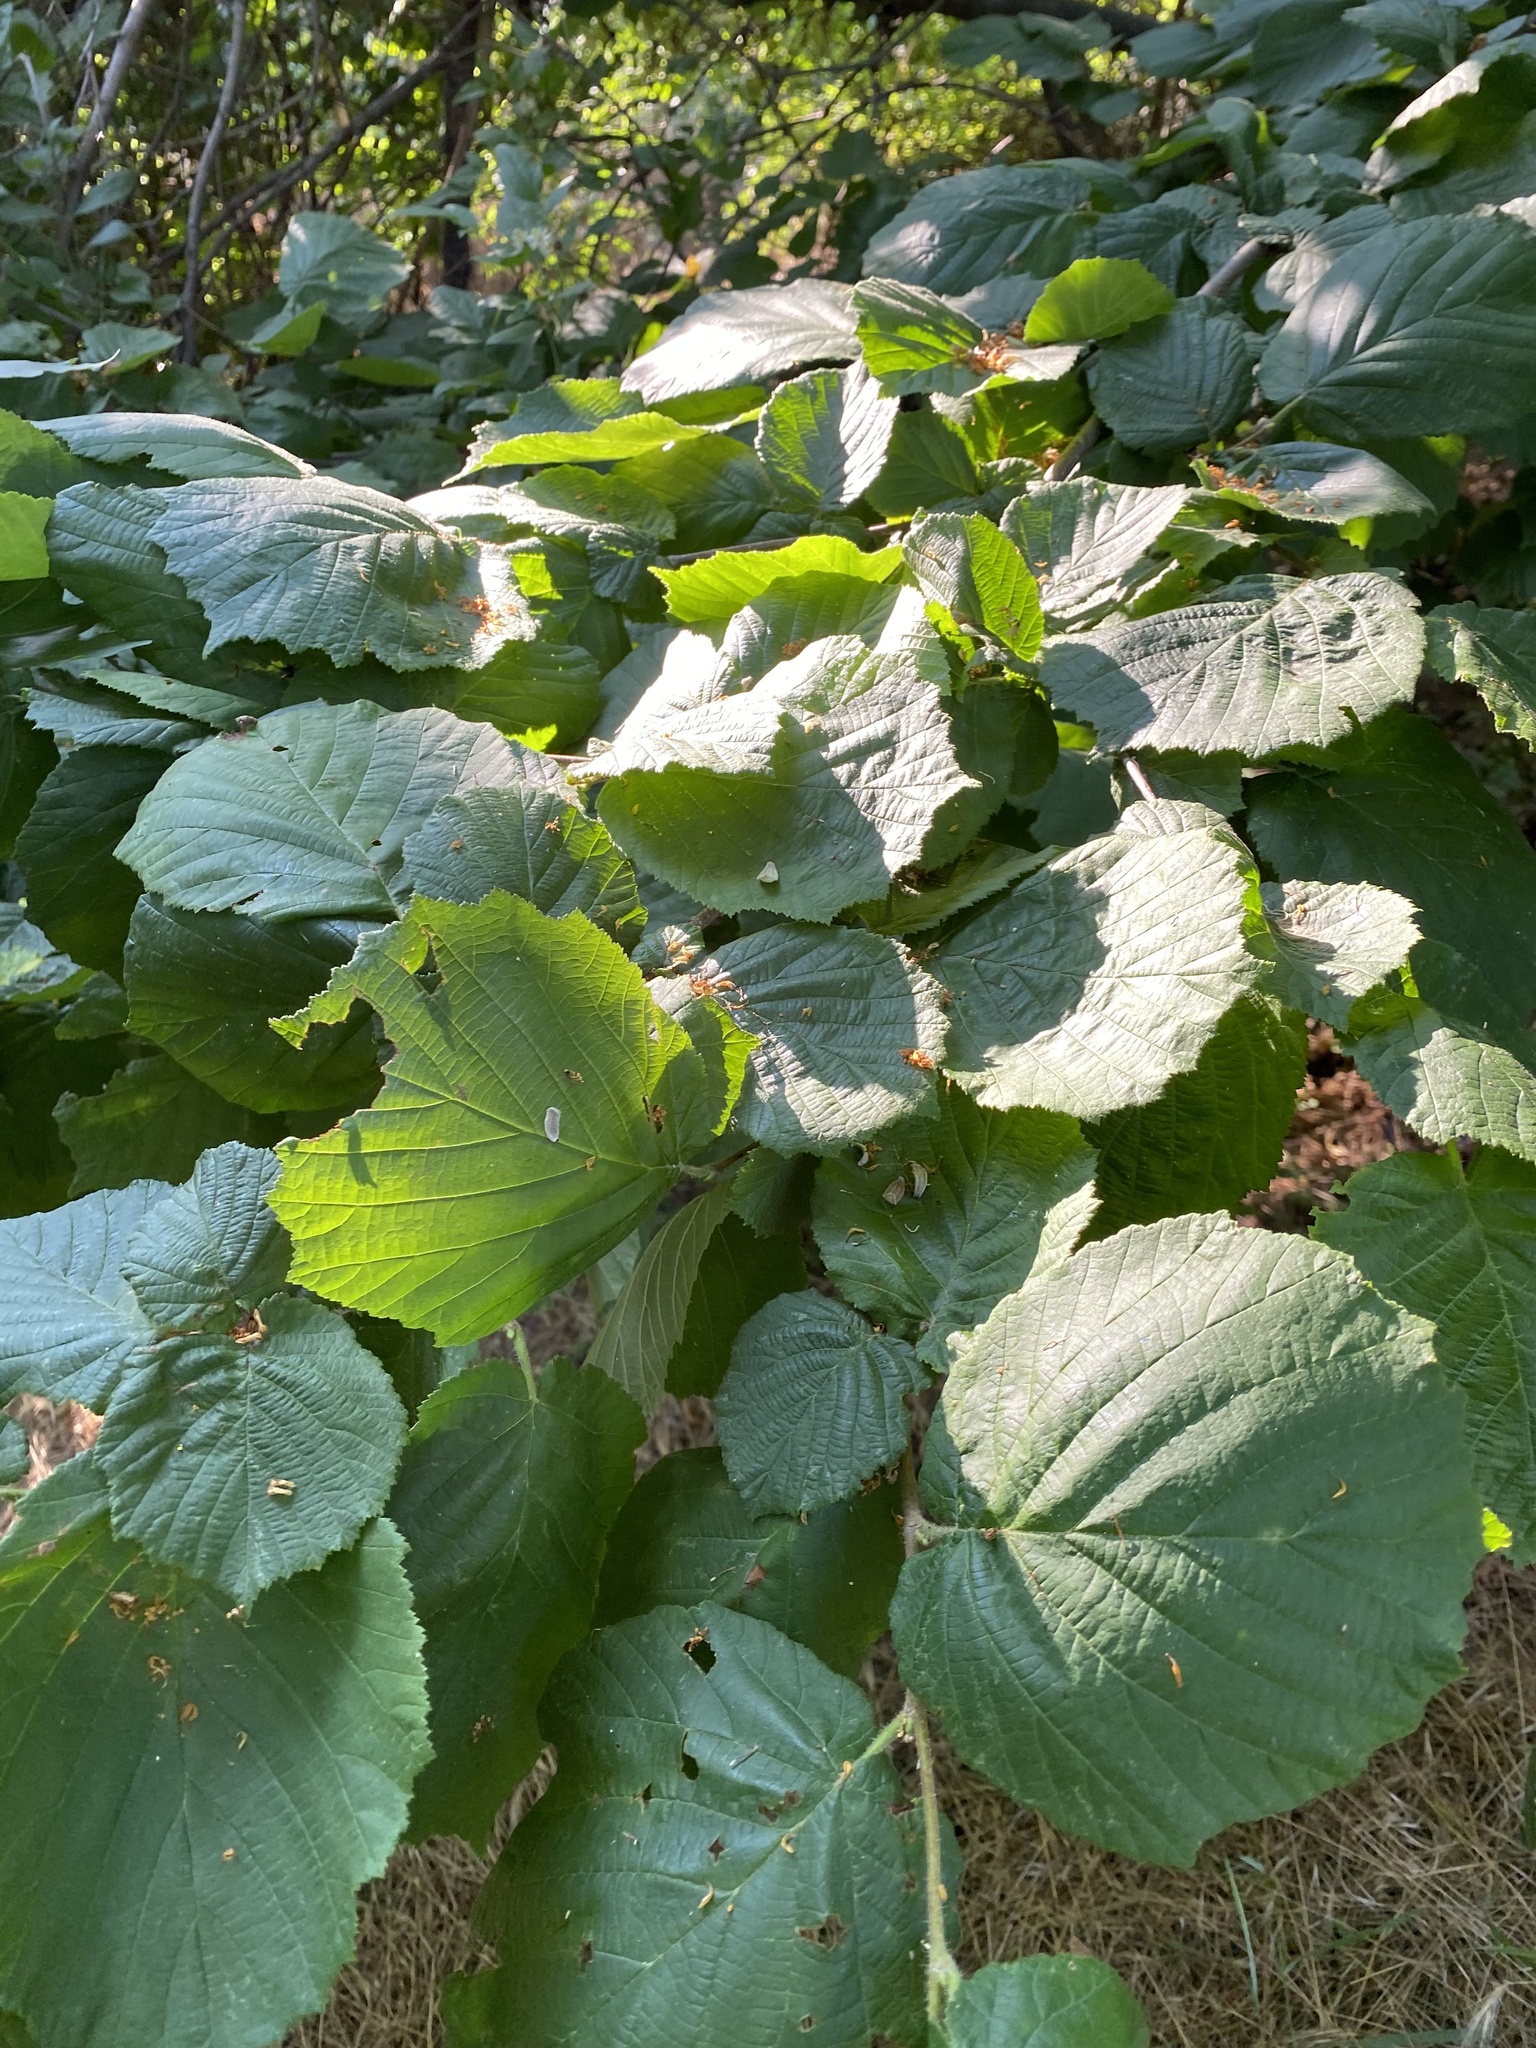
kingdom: Plantae
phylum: Tracheophyta
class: Magnoliopsida
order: Fagales
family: Betulaceae
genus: Corylus
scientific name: Corylus avellana
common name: European hazel
